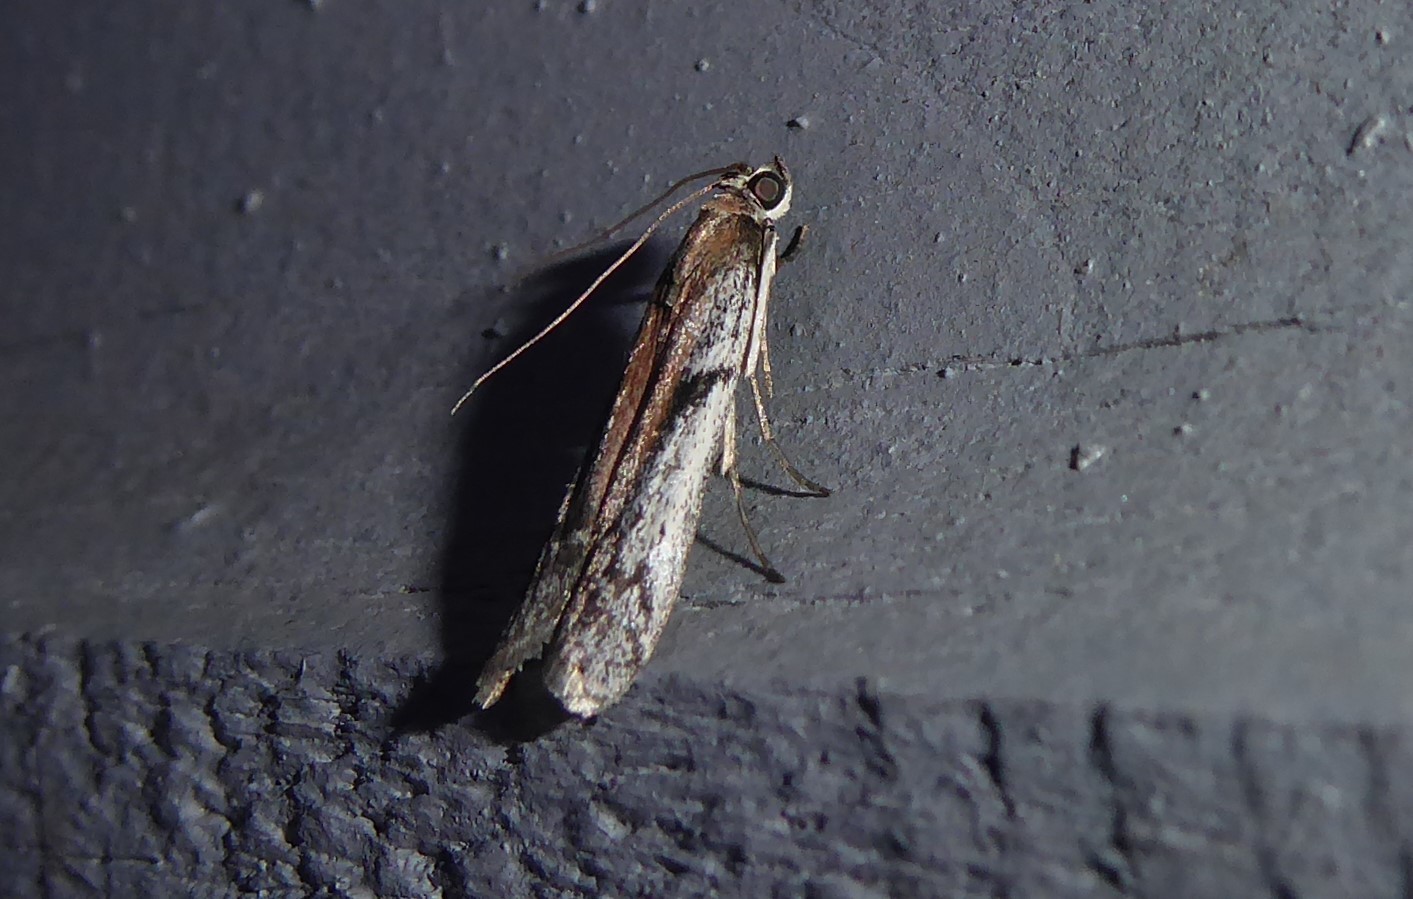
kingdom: Animalia
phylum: Arthropoda
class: Insecta
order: Lepidoptera
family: Pyralidae
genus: Patagoniodes
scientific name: Patagoniodes farinaria
